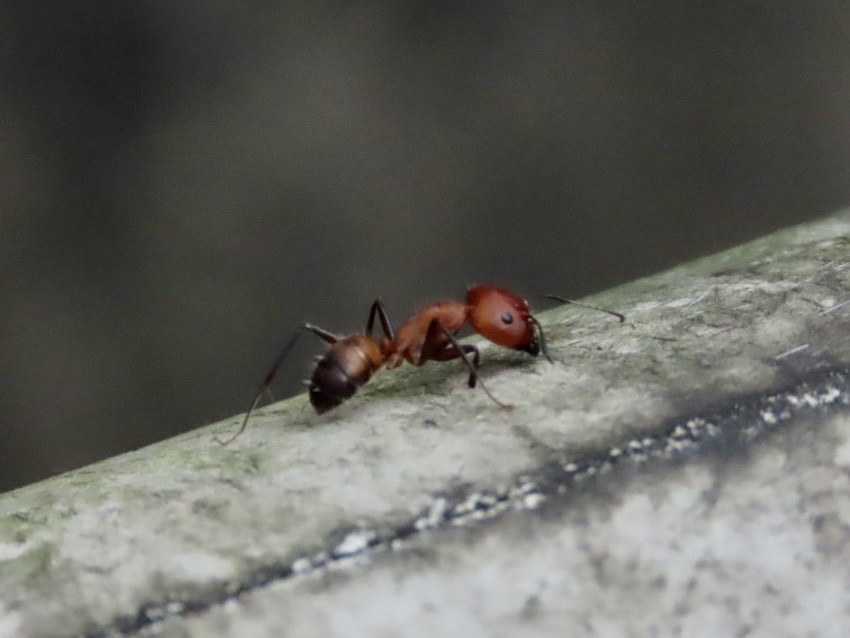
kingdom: Animalia
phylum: Arthropoda
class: Insecta
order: Hymenoptera
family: Formicidae
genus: Camponotus
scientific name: Camponotus nicobarensis
